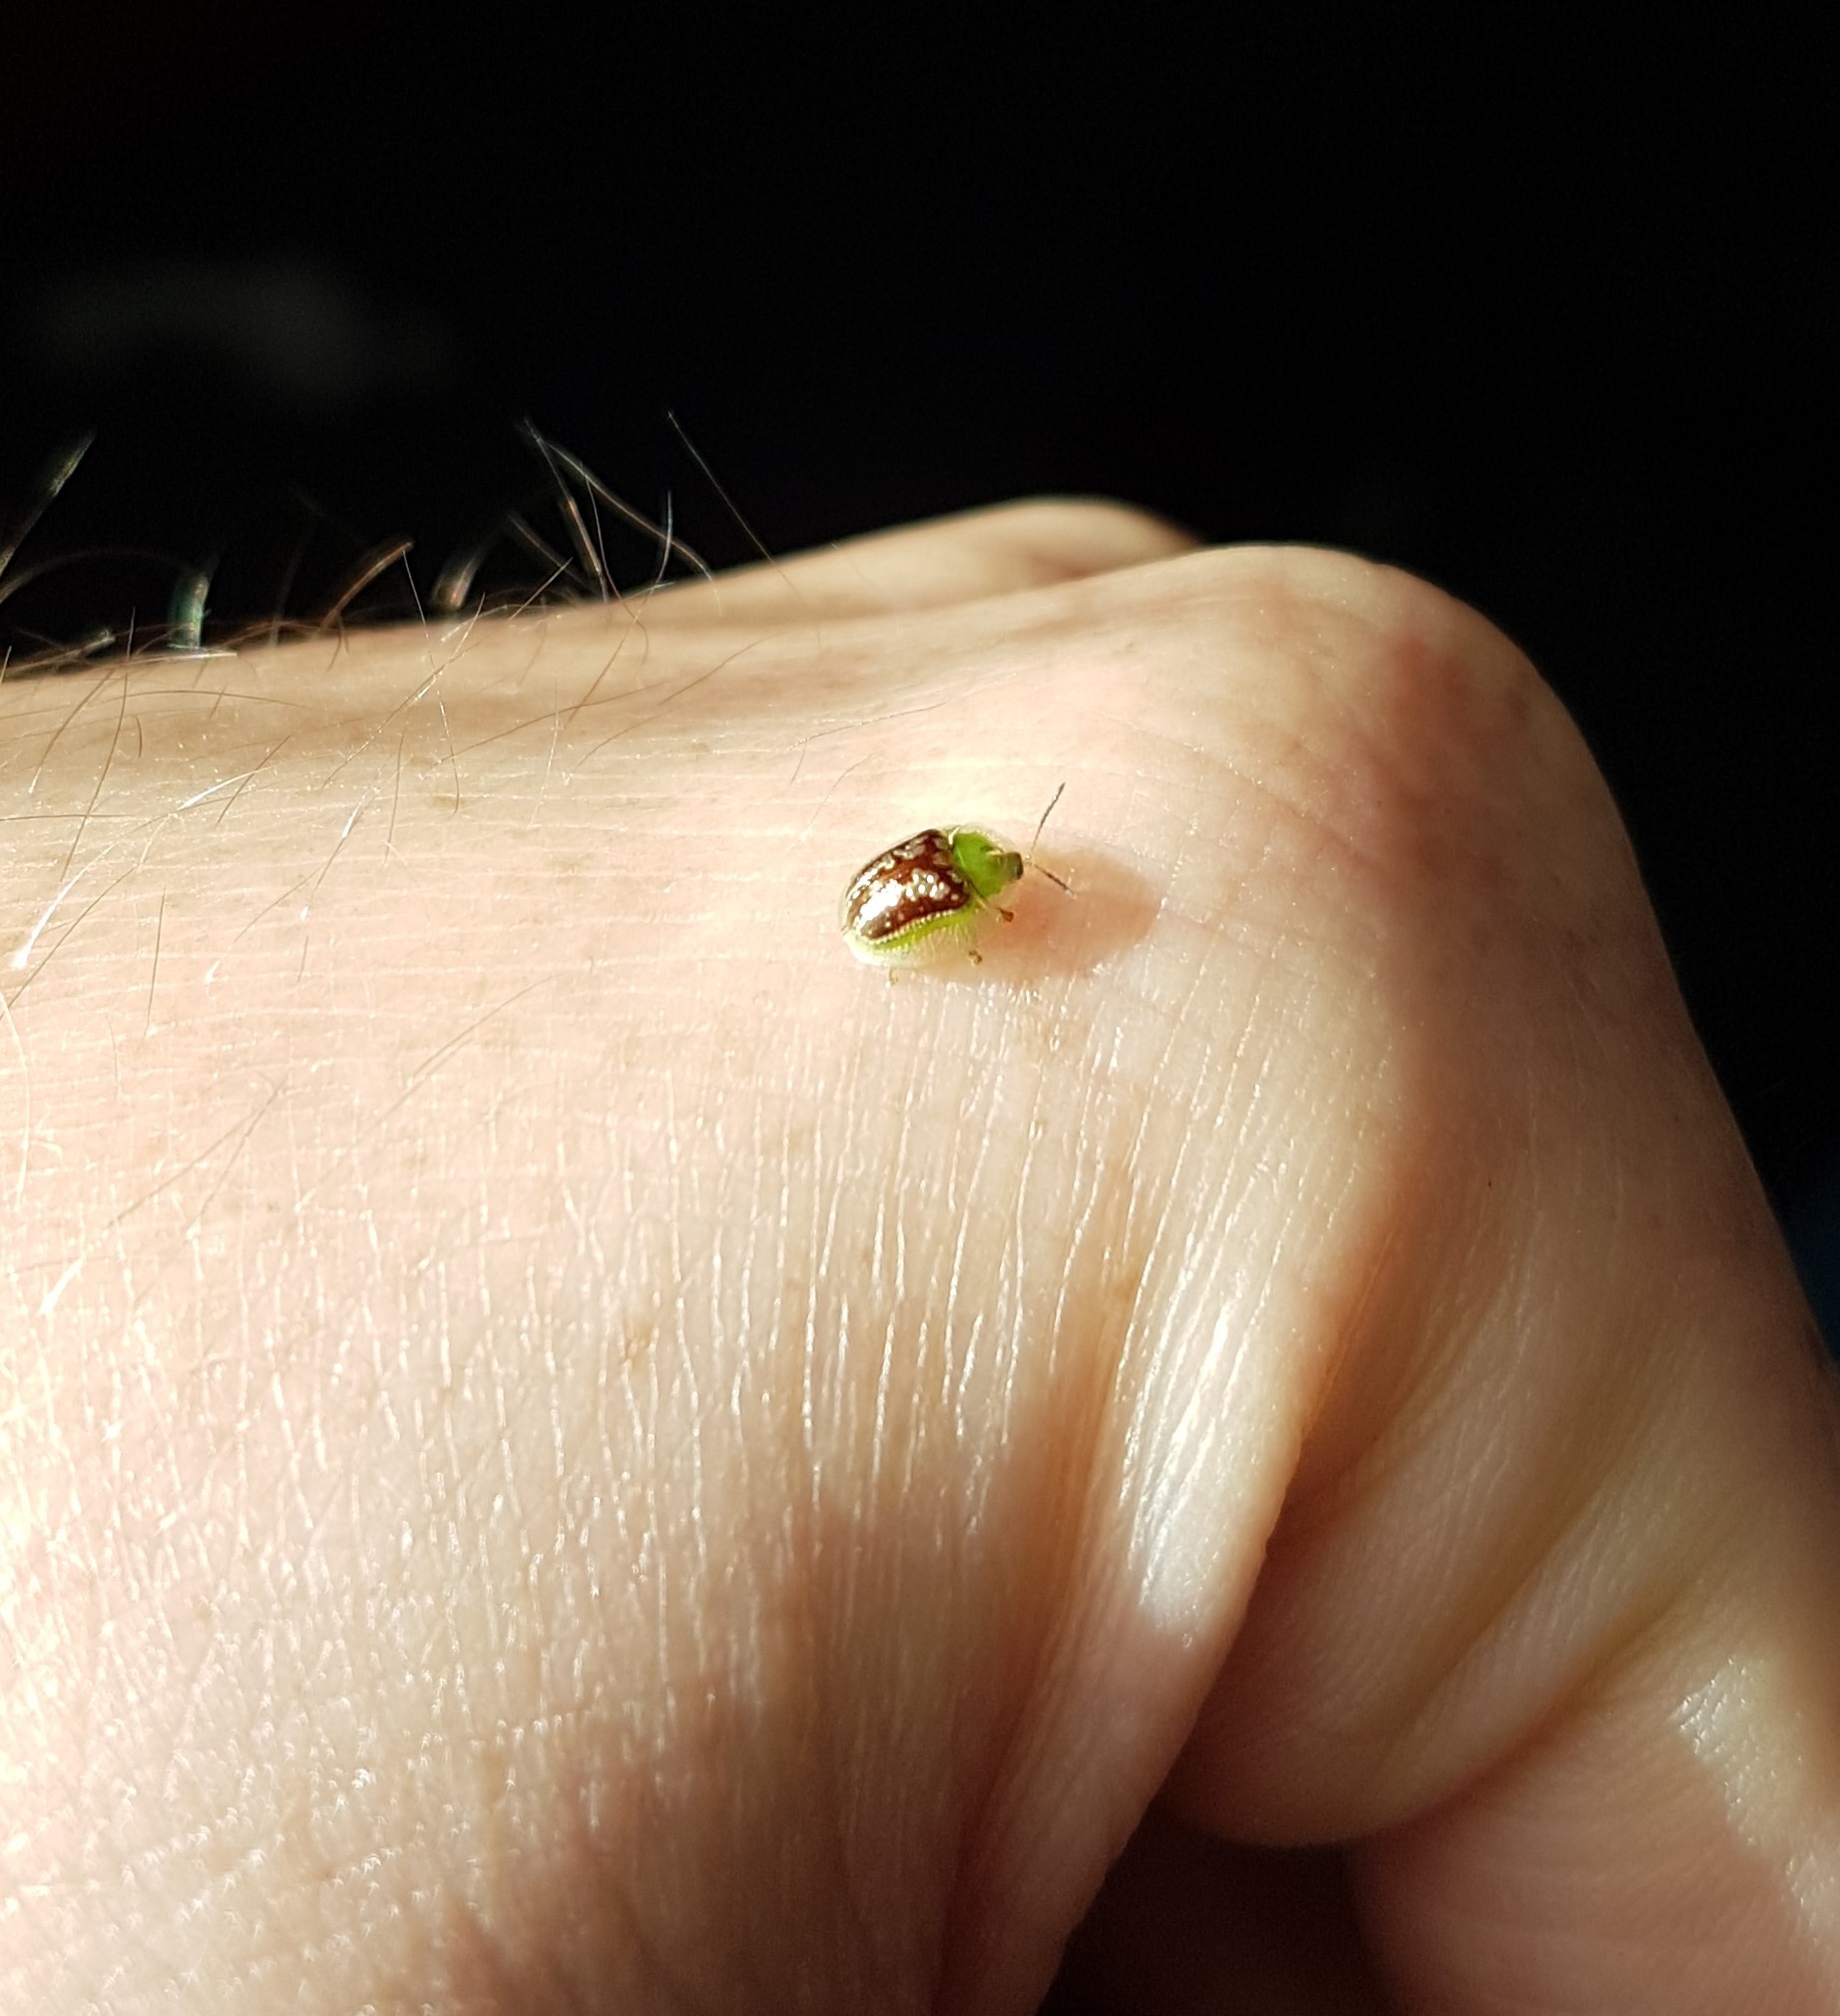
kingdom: Animalia
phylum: Arthropoda
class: Insecta
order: Coleoptera
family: Chrysomelidae
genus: Cassida
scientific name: Cassida compuncta
